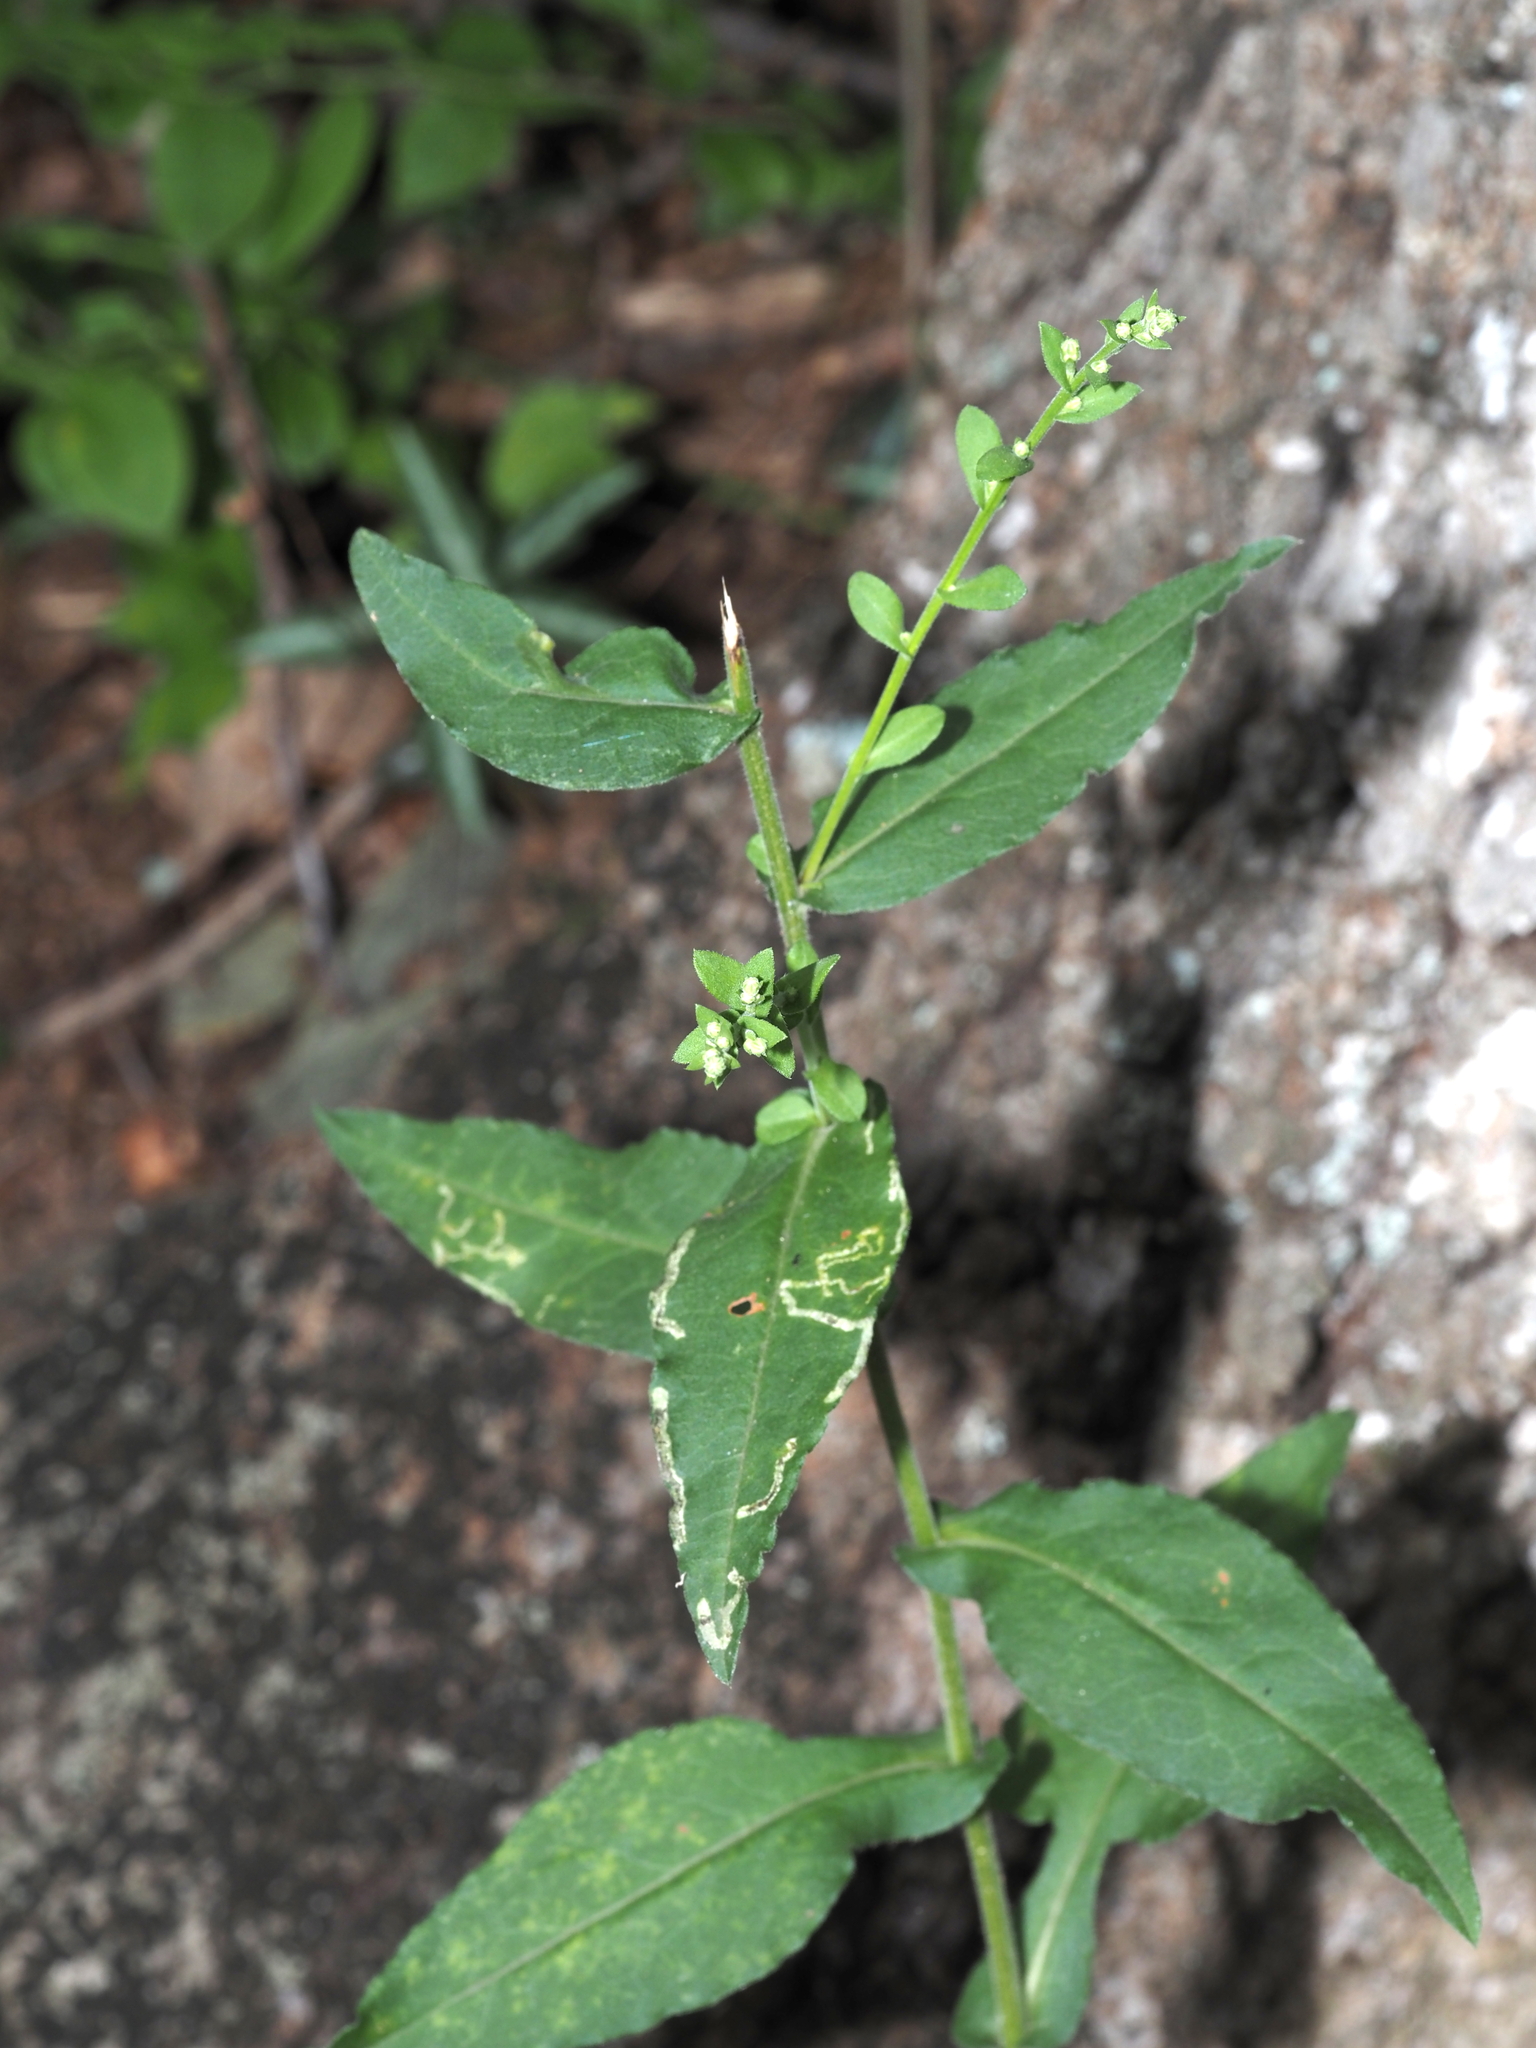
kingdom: Plantae
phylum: Tracheophyta
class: Magnoliopsida
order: Asterales
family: Asteraceae
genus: Symphyotrichum
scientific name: Symphyotrichum undulatum
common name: Clasping heart-leaf aster
